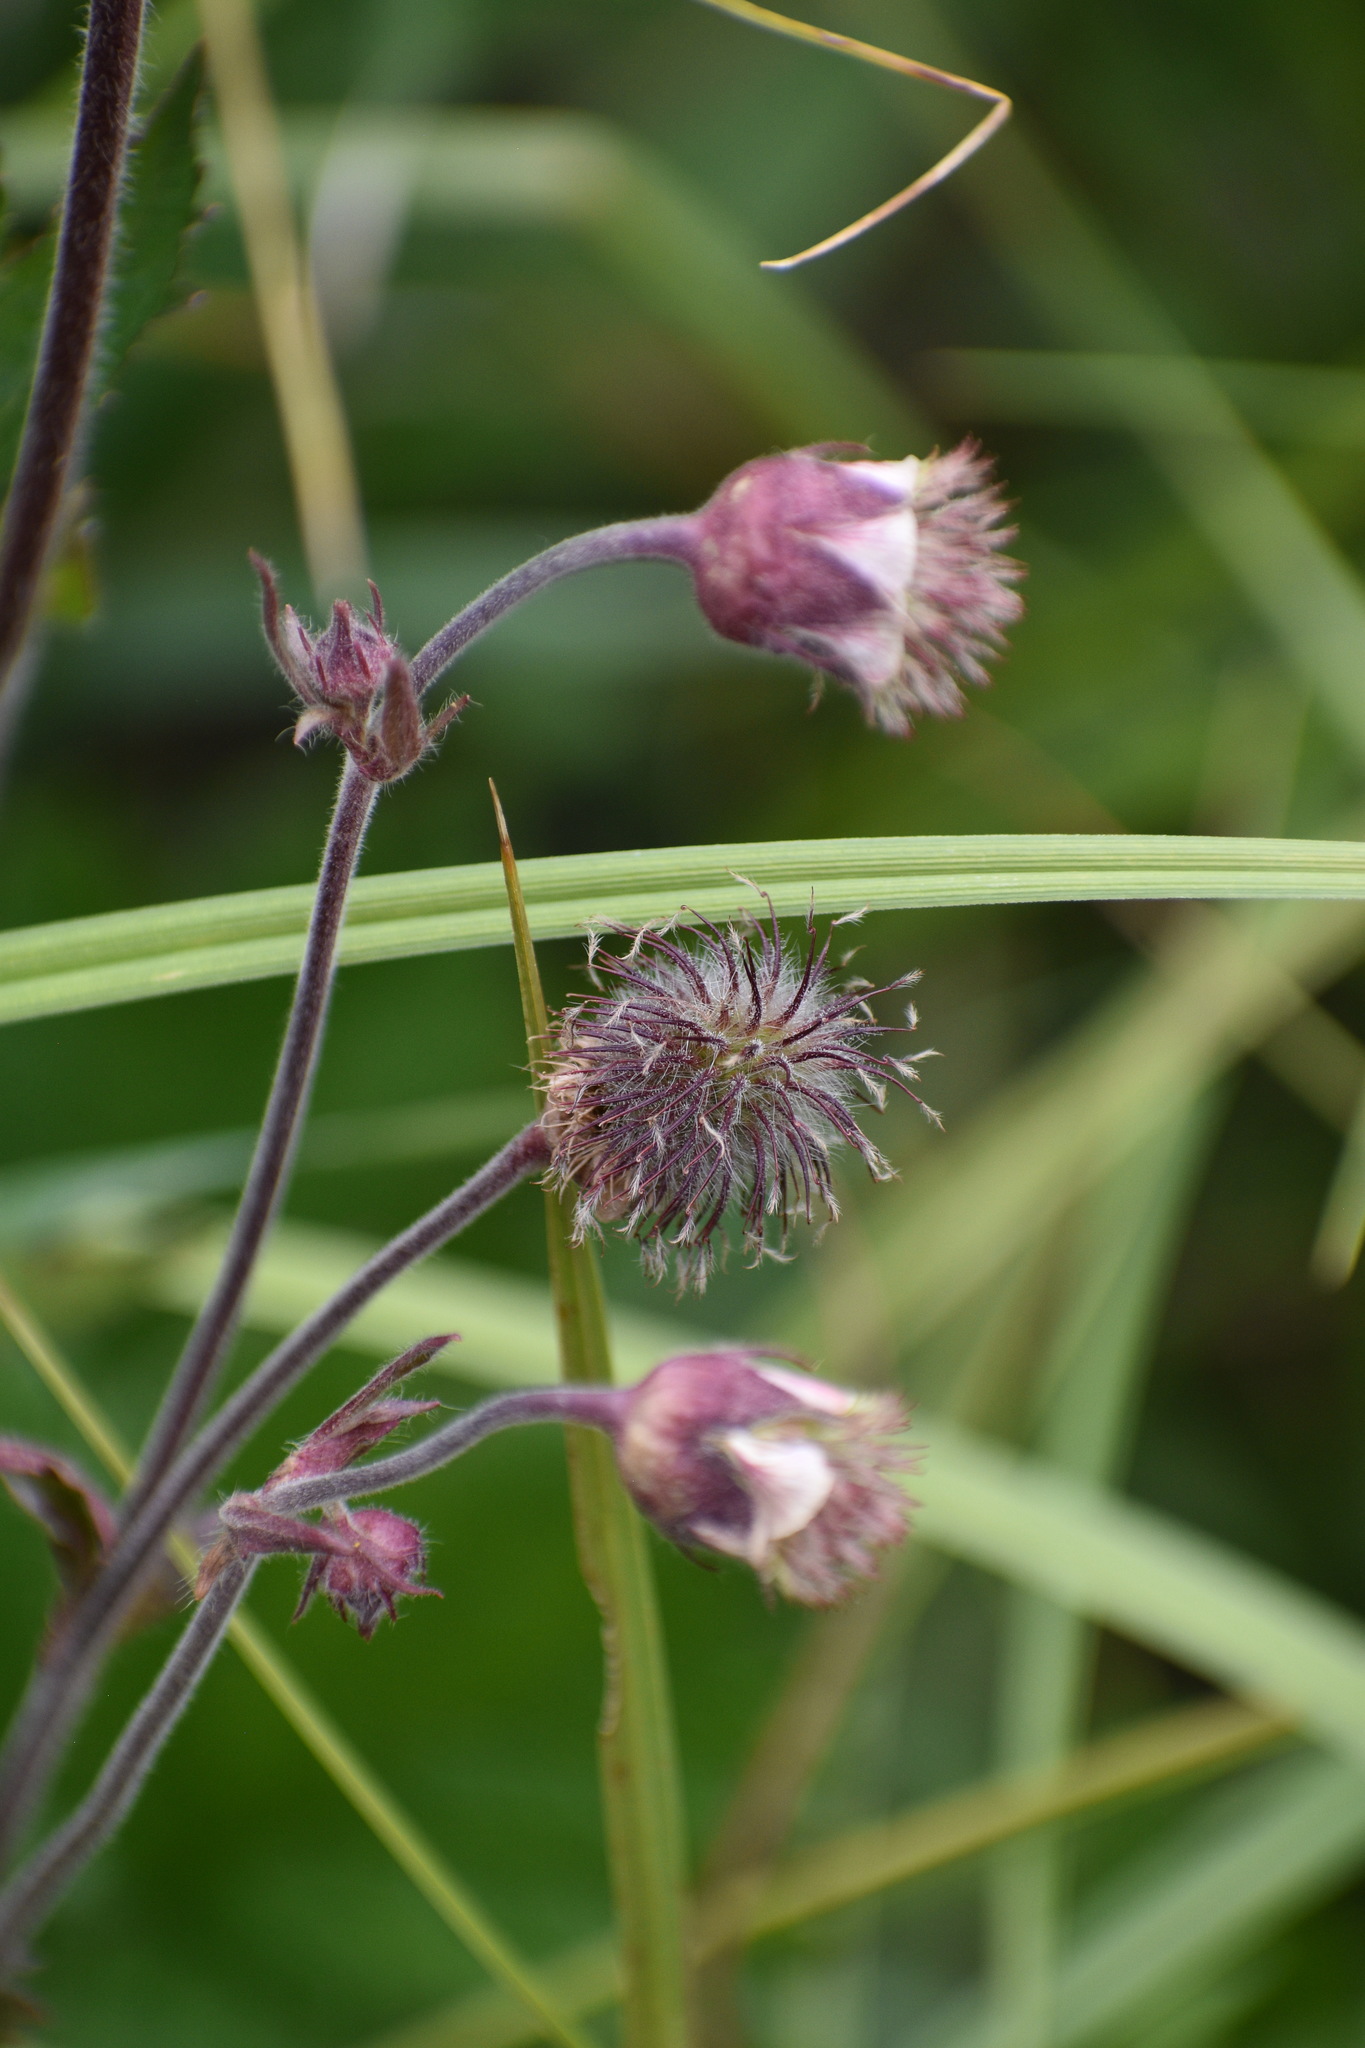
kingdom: Plantae
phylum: Tracheophyta
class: Magnoliopsida
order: Rosales
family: Rosaceae
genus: Geum
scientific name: Geum rivale
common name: Water avens
